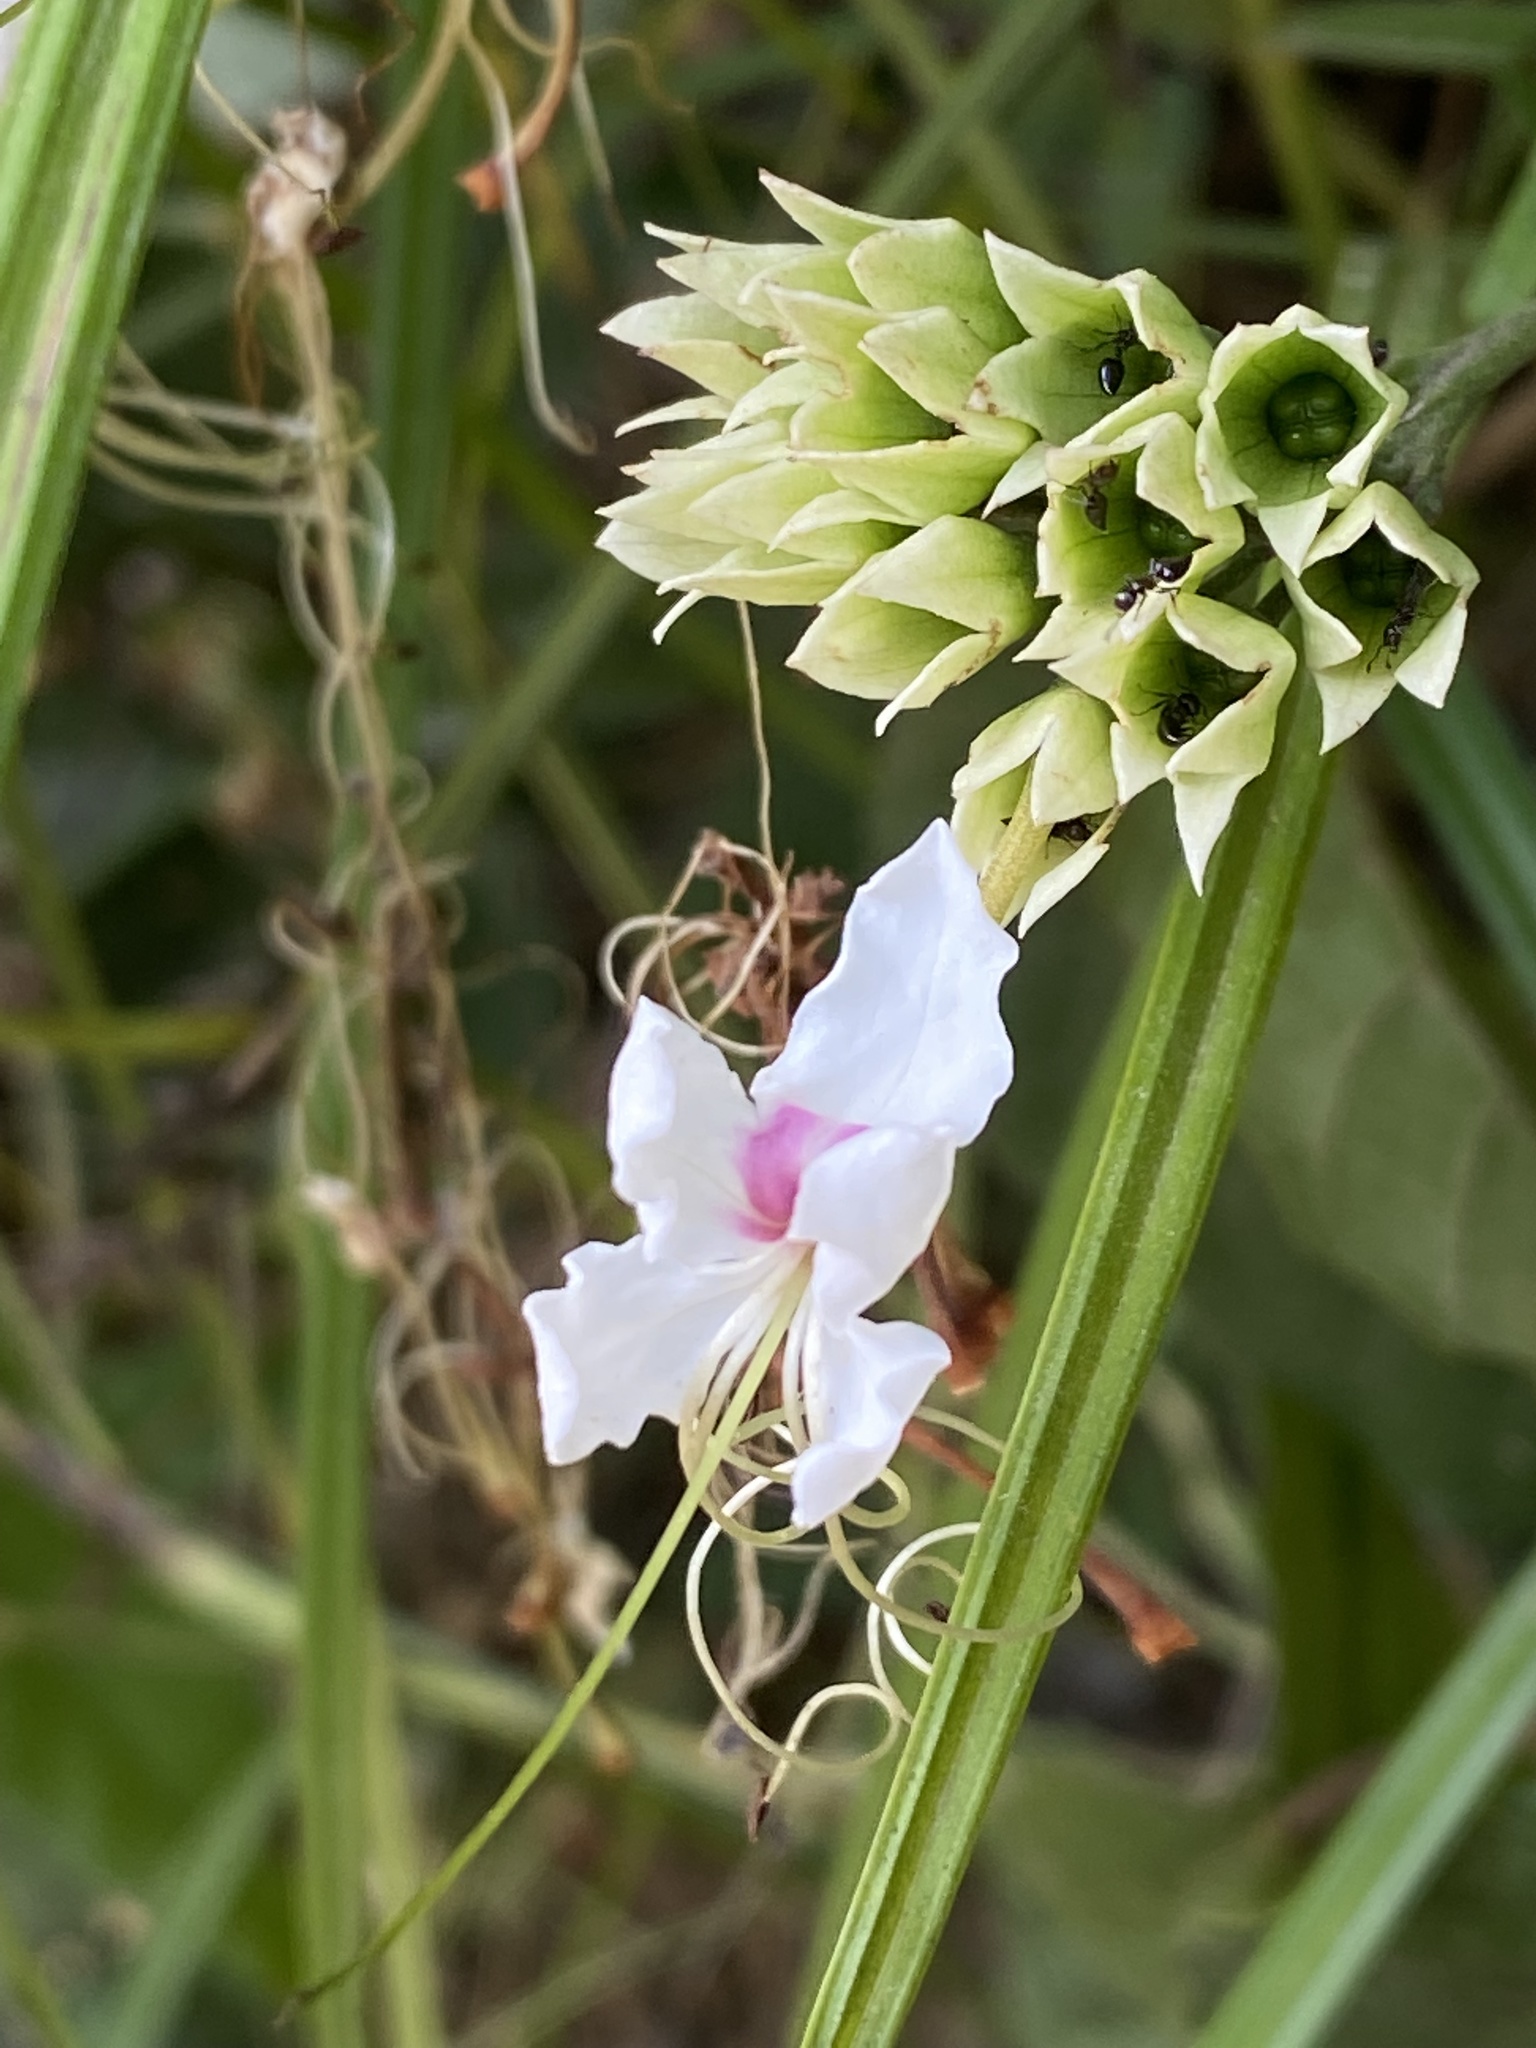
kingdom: Plantae
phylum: Tracheophyta
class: Magnoliopsida
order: Lamiales
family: Lamiaceae
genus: Clerodendrum
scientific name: Clerodendrum umbellatum
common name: Umbel clerodendrum
